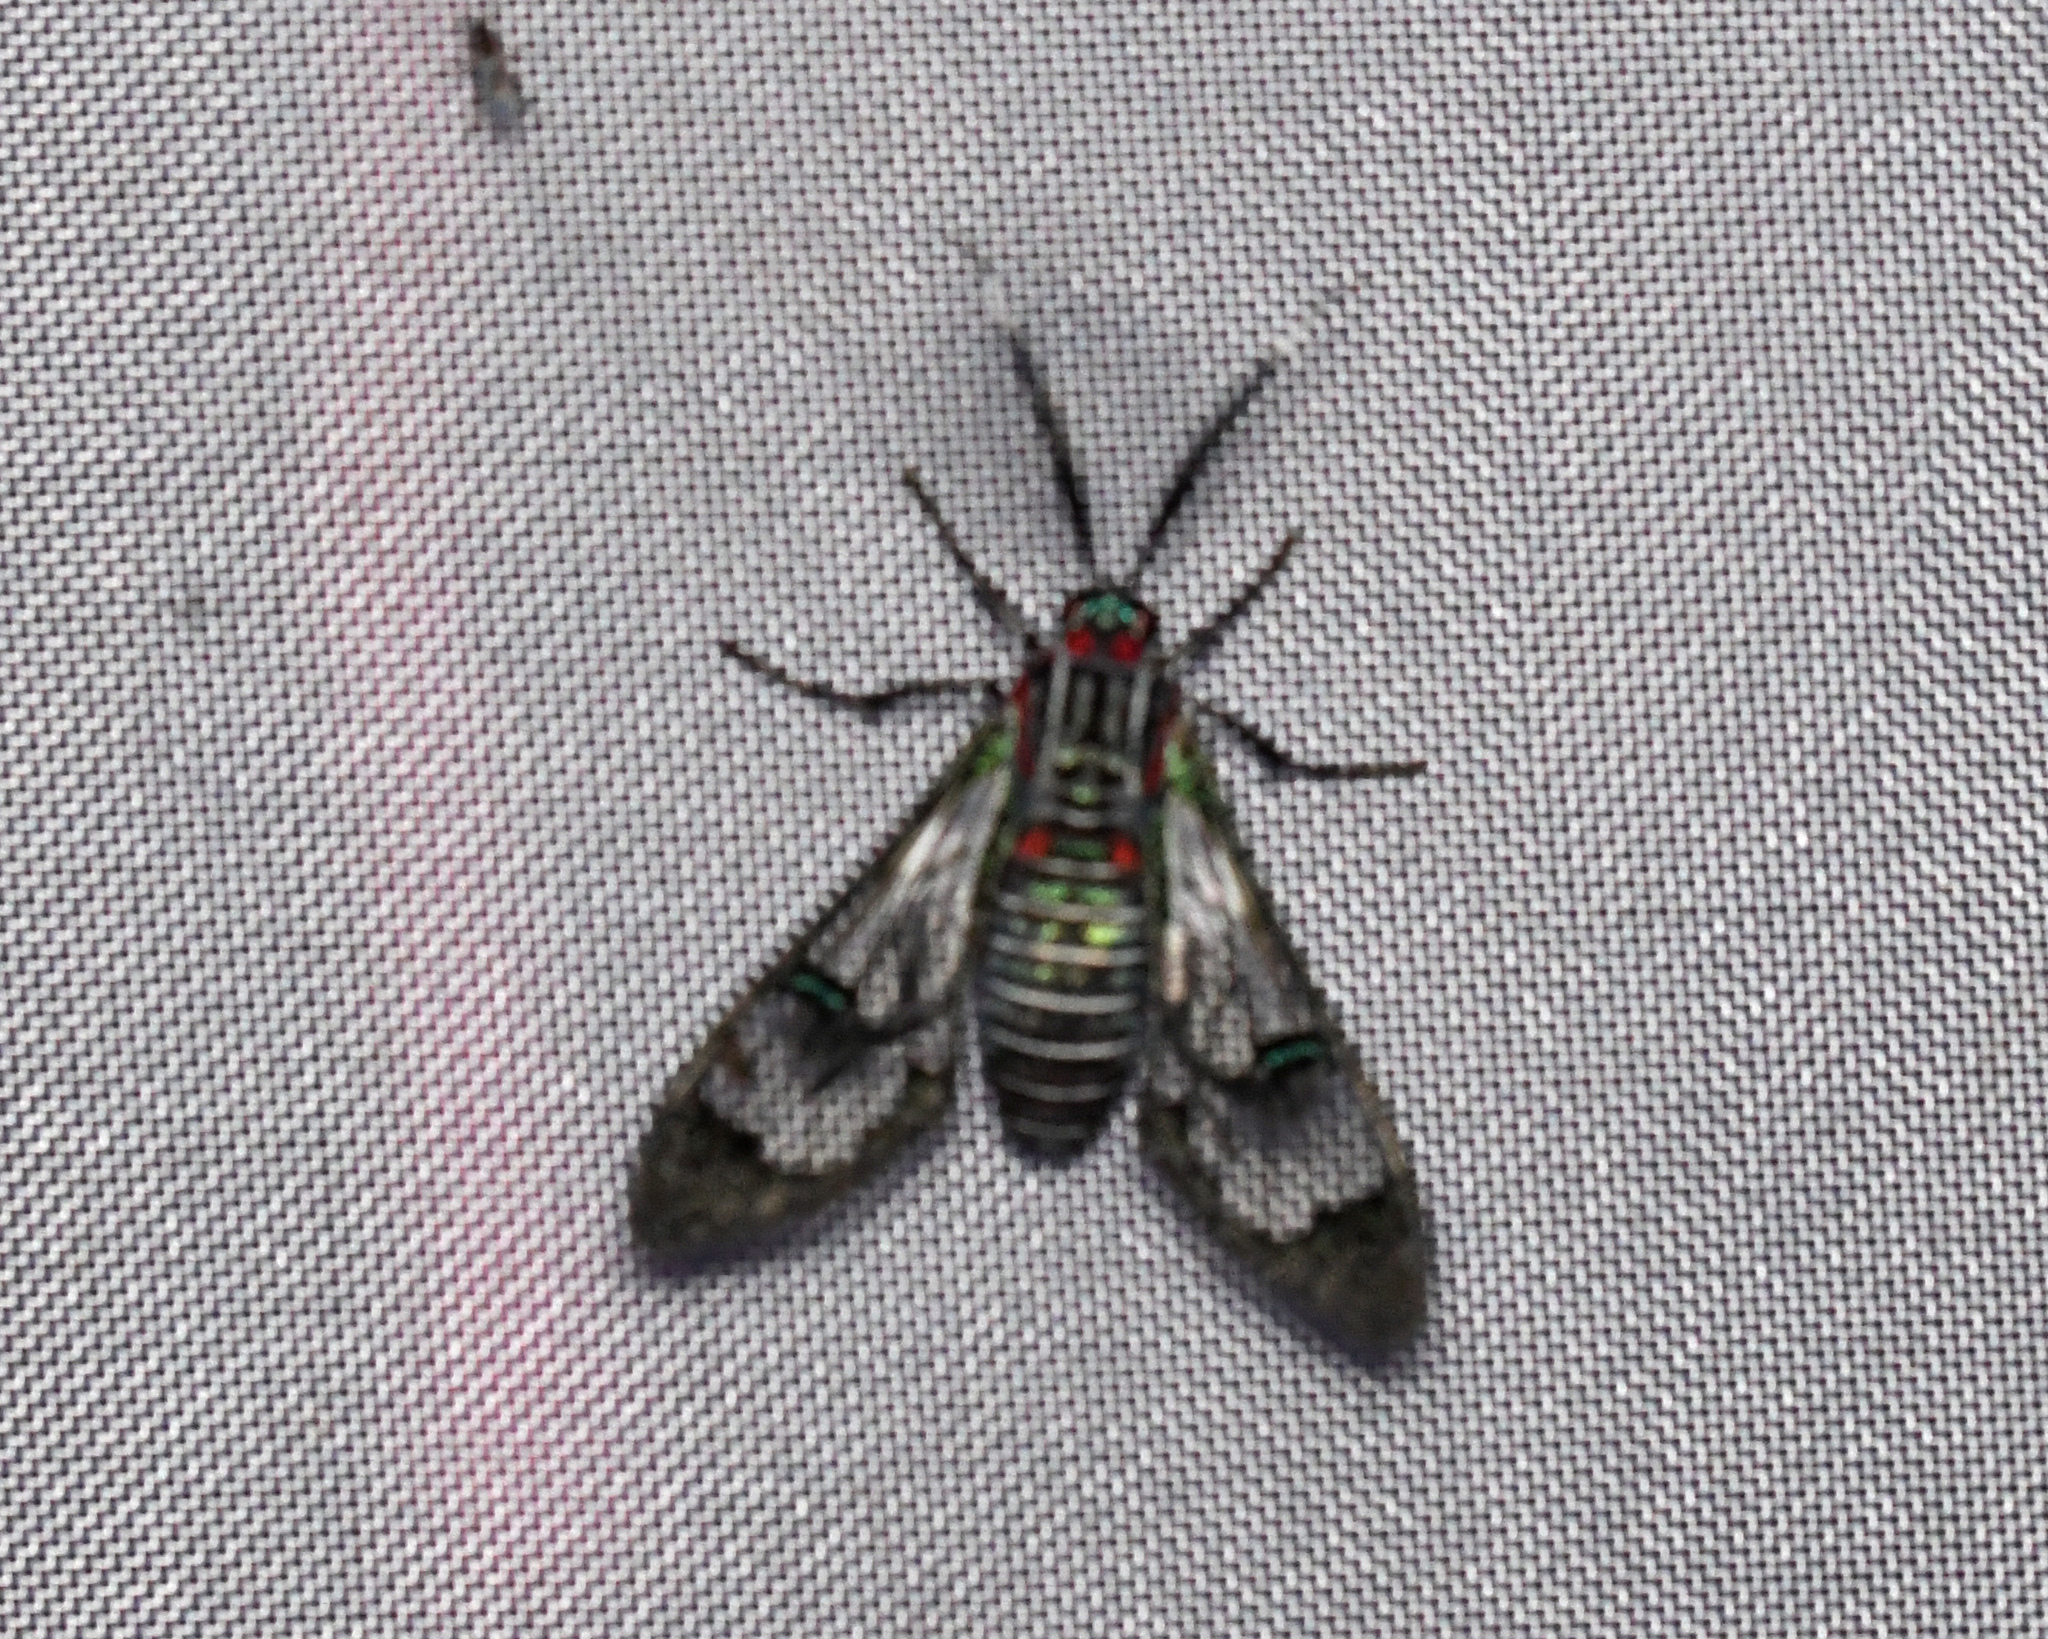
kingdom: Animalia
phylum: Arthropoda
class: Insecta
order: Lepidoptera
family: Erebidae
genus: Eunomia
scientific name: Eunomia colombina
